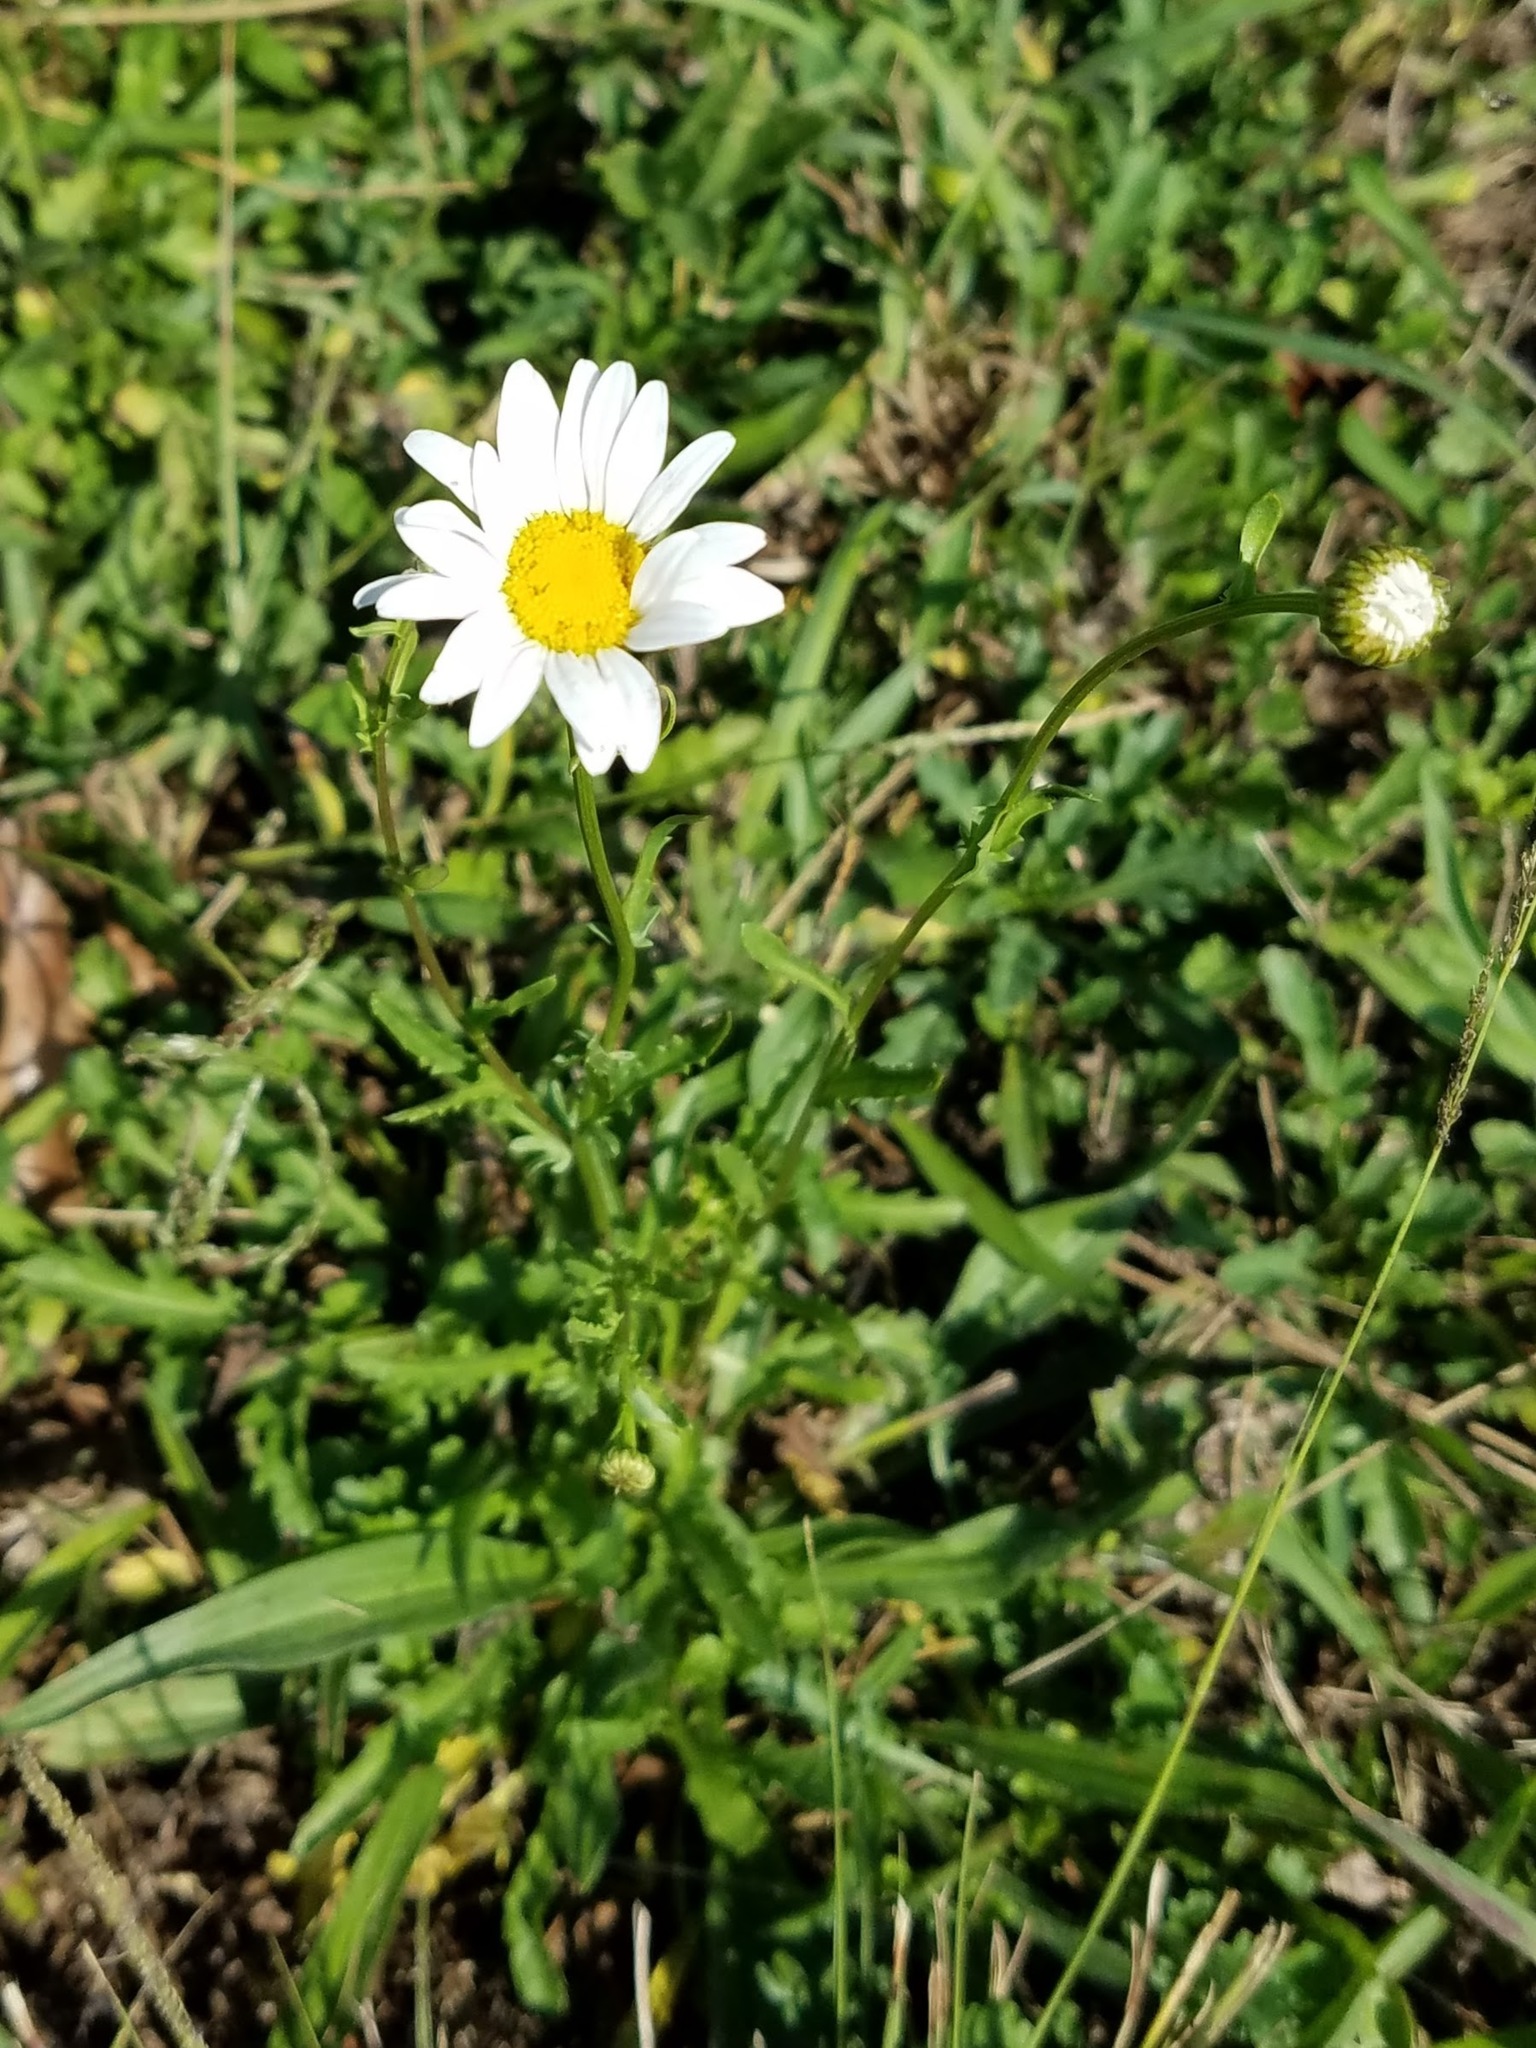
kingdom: Plantae
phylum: Tracheophyta
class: Magnoliopsida
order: Asterales
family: Asteraceae
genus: Leucanthemum
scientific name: Leucanthemum vulgare
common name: Oxeye daisy
